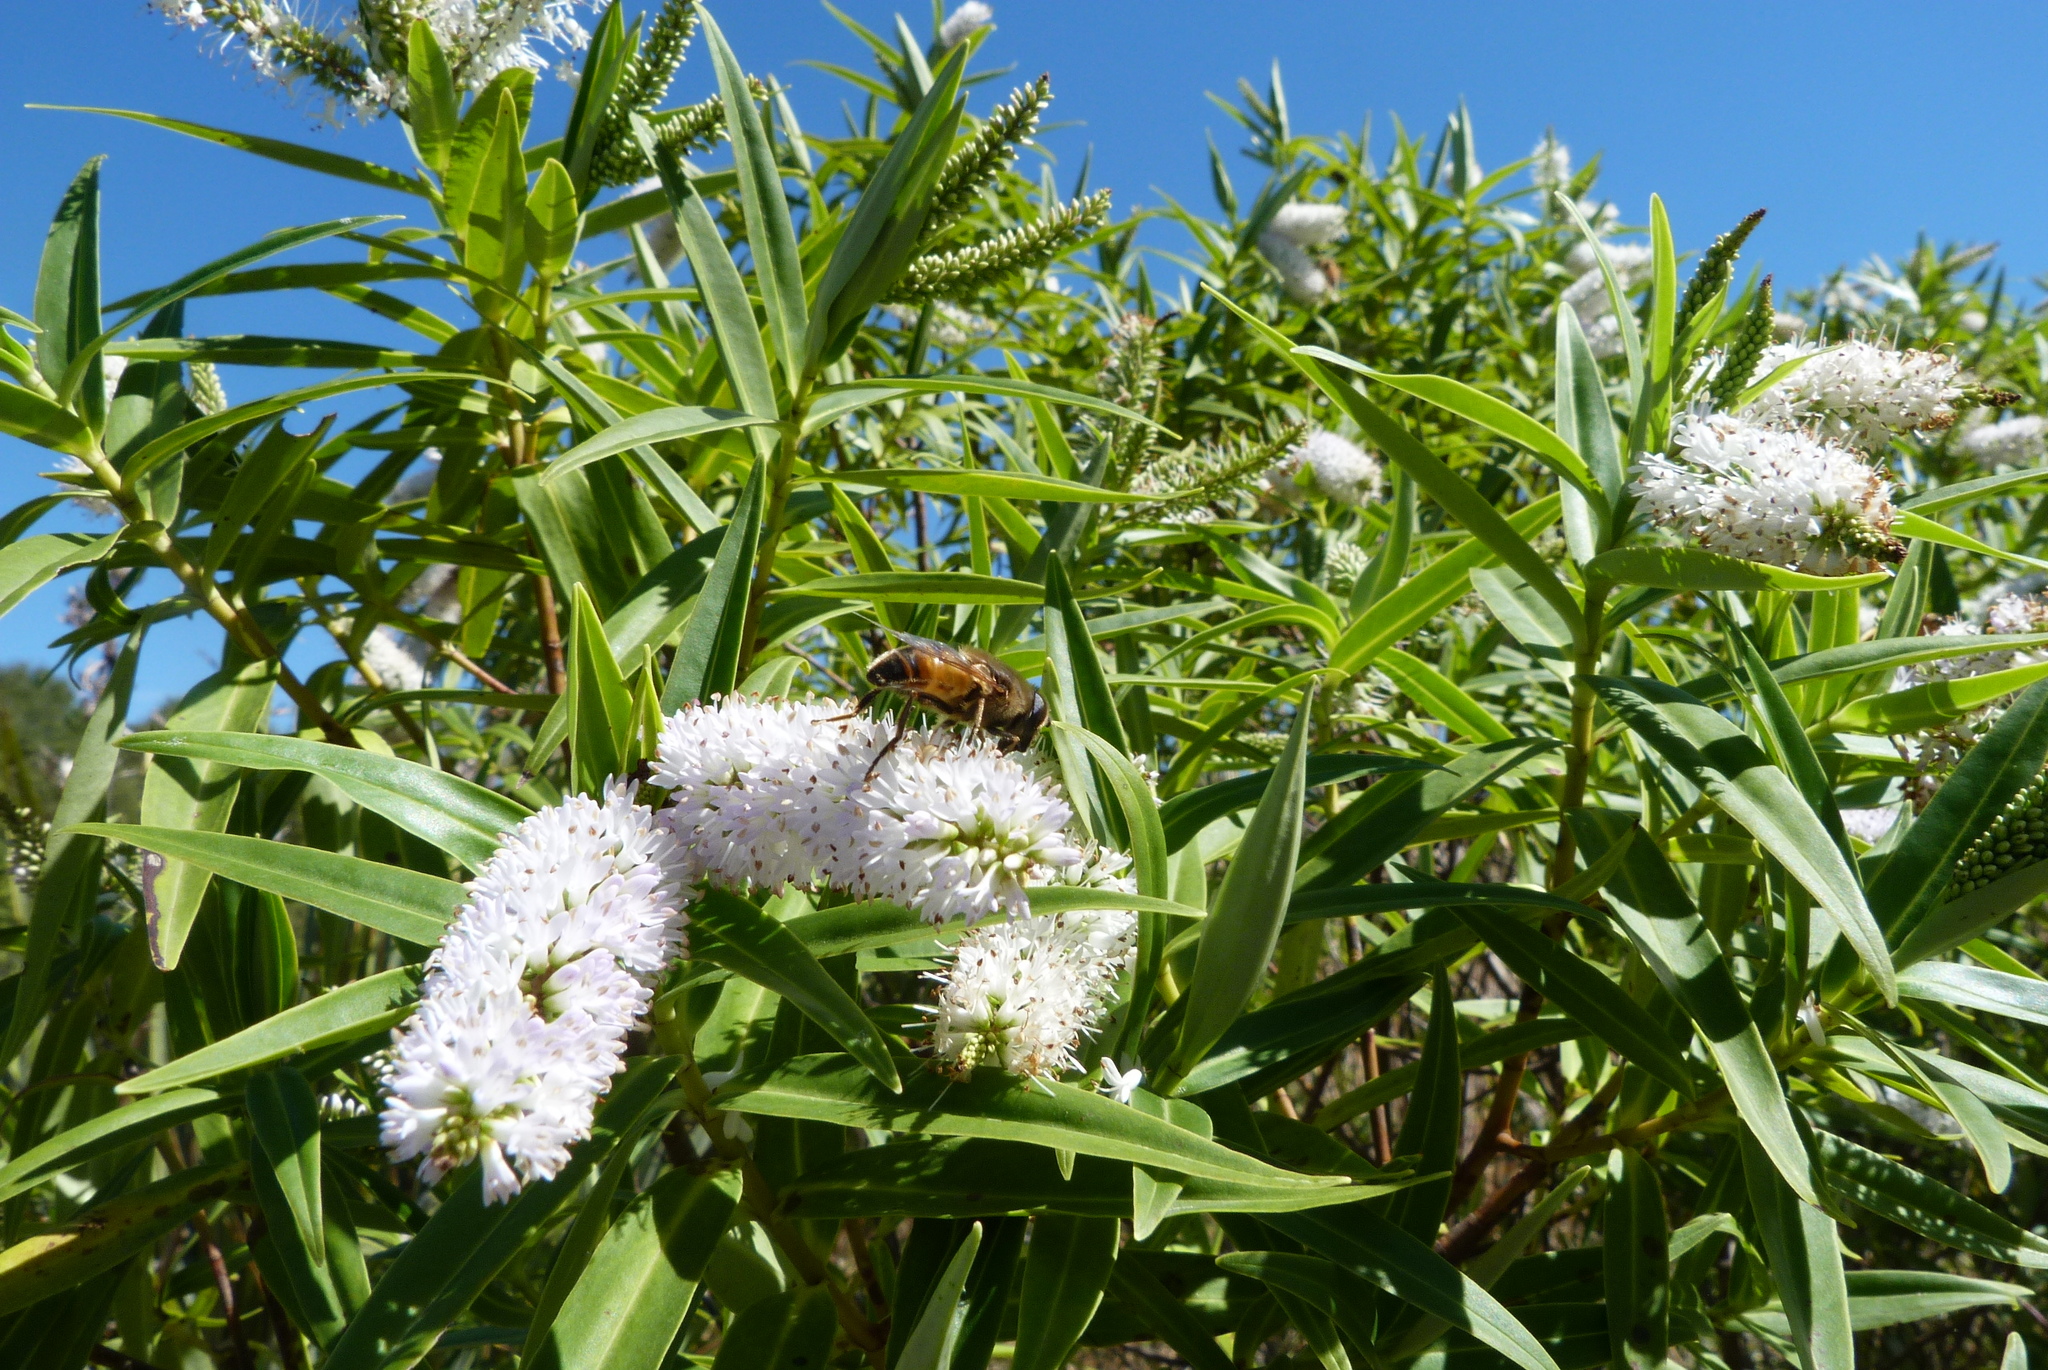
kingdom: Animalia
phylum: Arthropoda
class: Insecta
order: Diptera
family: Syrphidae
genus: Eristalis
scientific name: Eristalis tenax
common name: Drone fly
